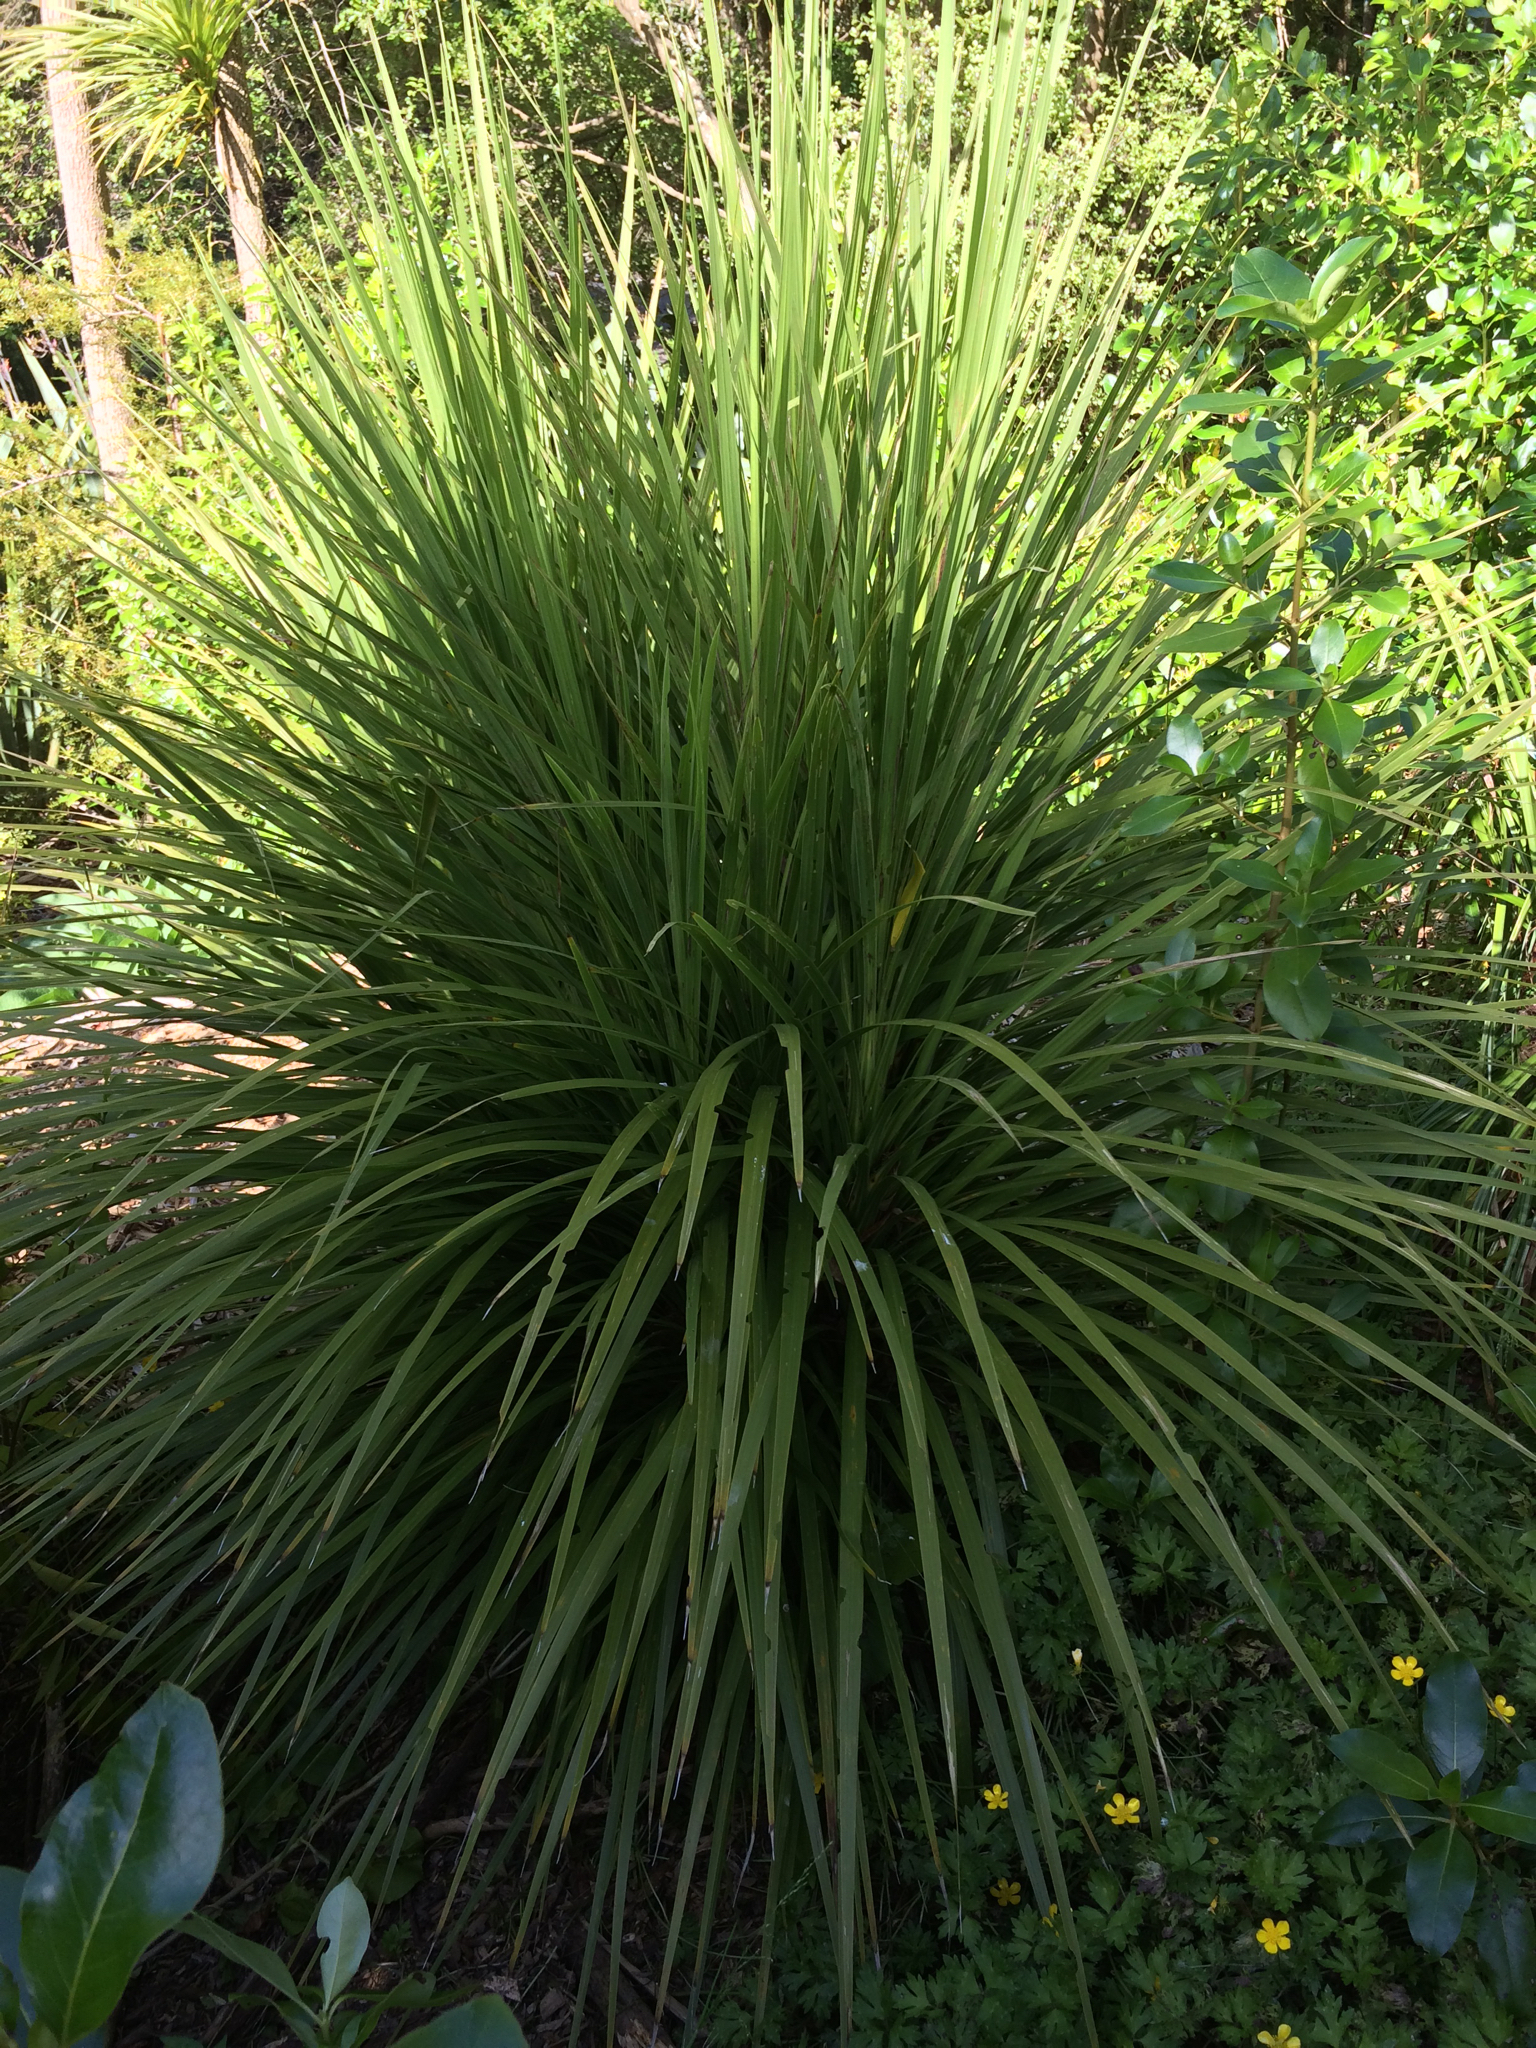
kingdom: Plantae
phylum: Tracheophyta
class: Liliopsida
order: Asparagales
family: Asparagaceae
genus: Cordyline
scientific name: Cordyline australis
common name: Cabbage-palm
